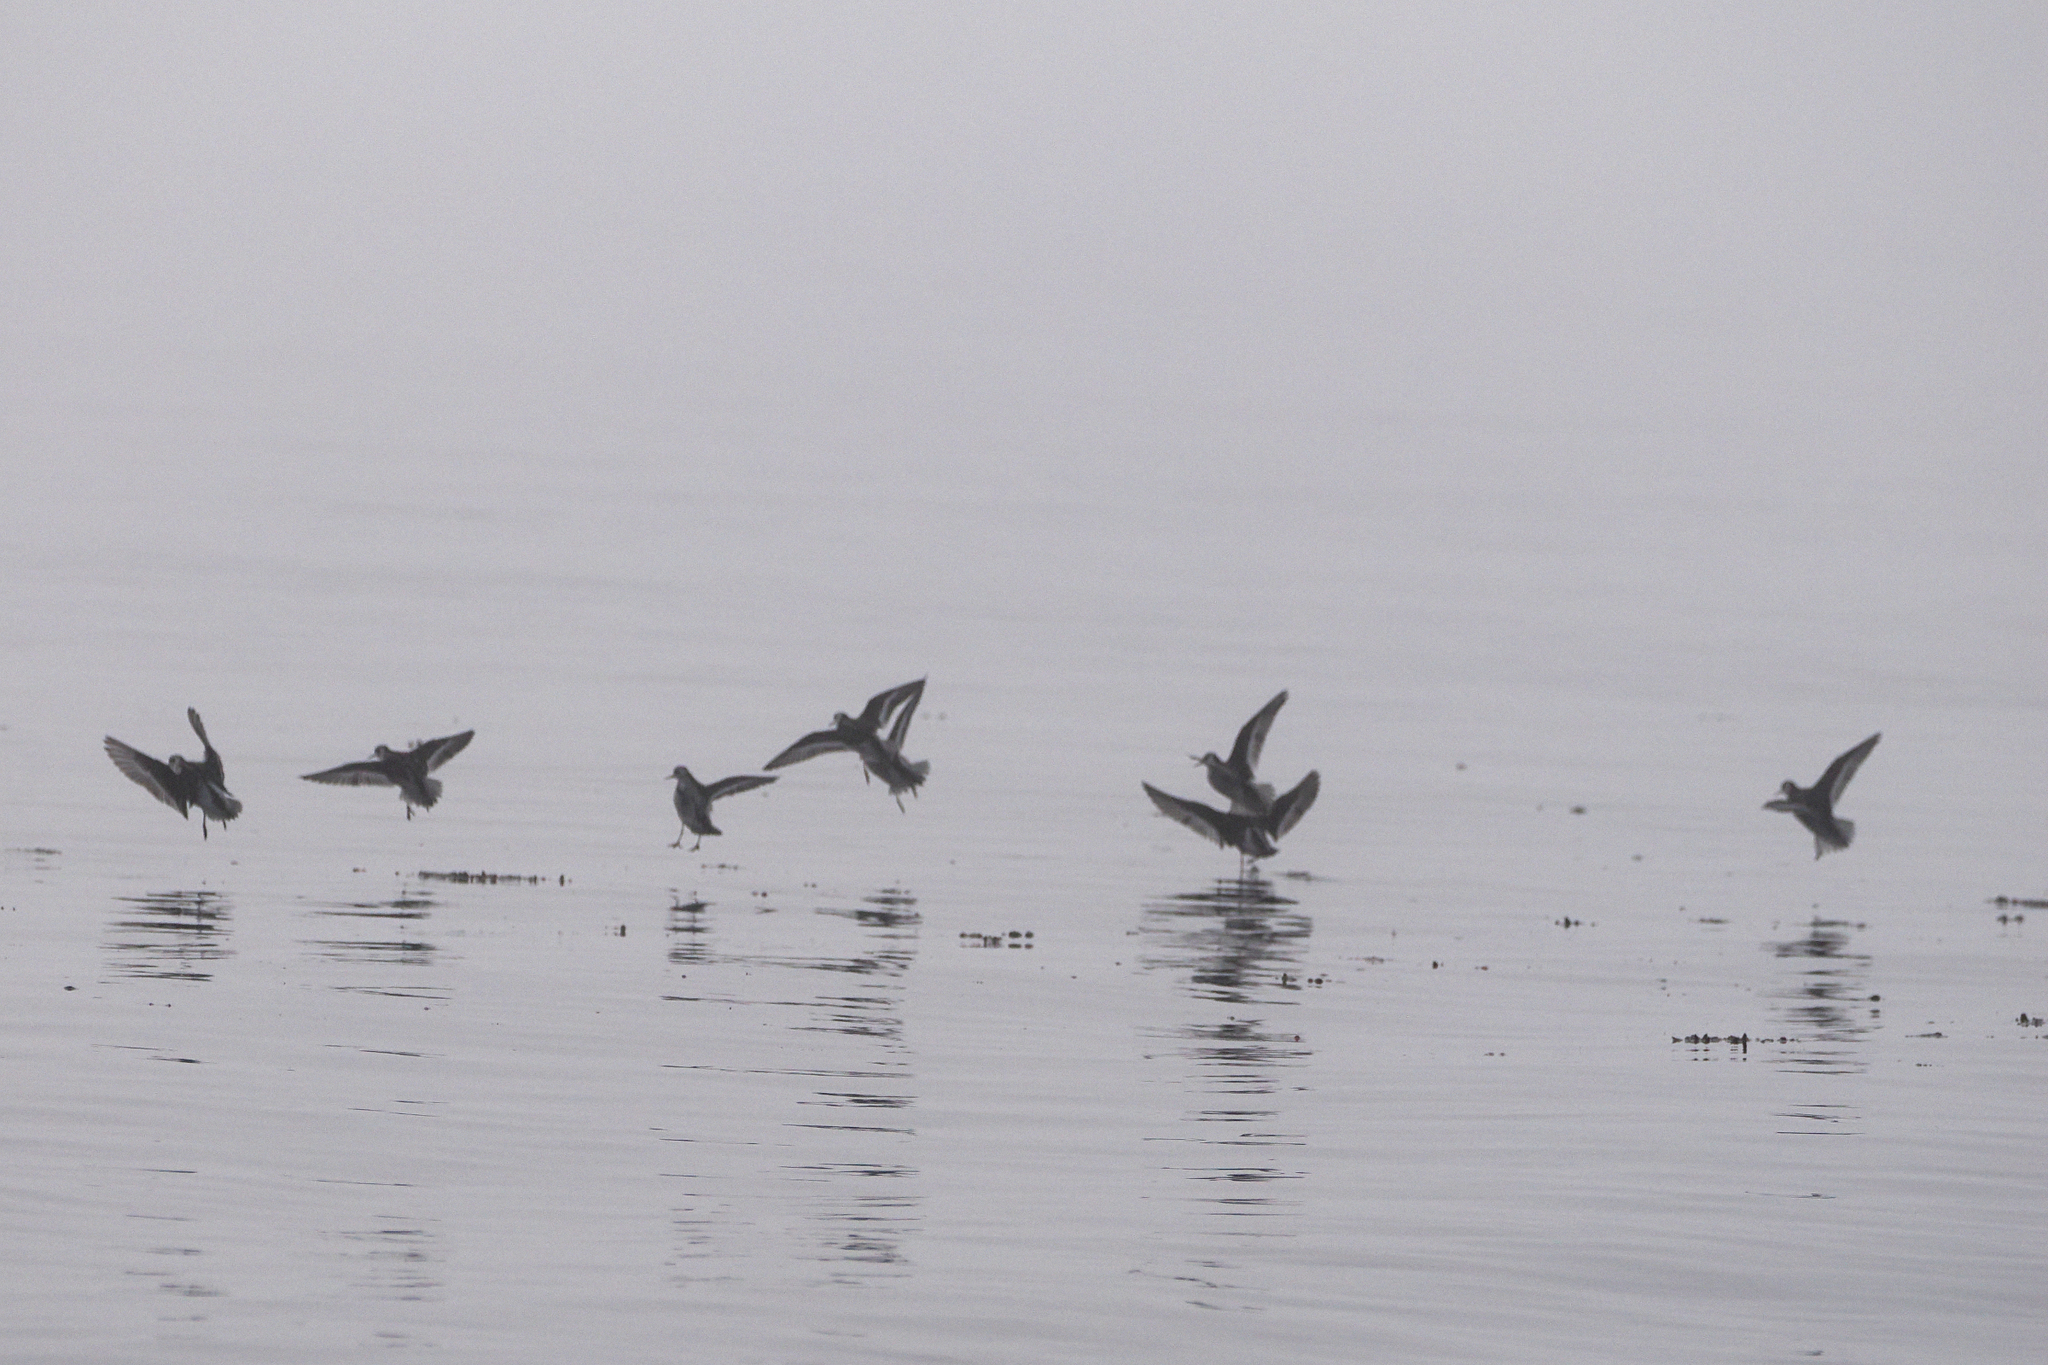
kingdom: Animalia
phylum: Chordata
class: Aves
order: Charadriiformes
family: Scolopacidae
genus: Phalaropus
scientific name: Phalaropus lobatus
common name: Red-necked phalarope
